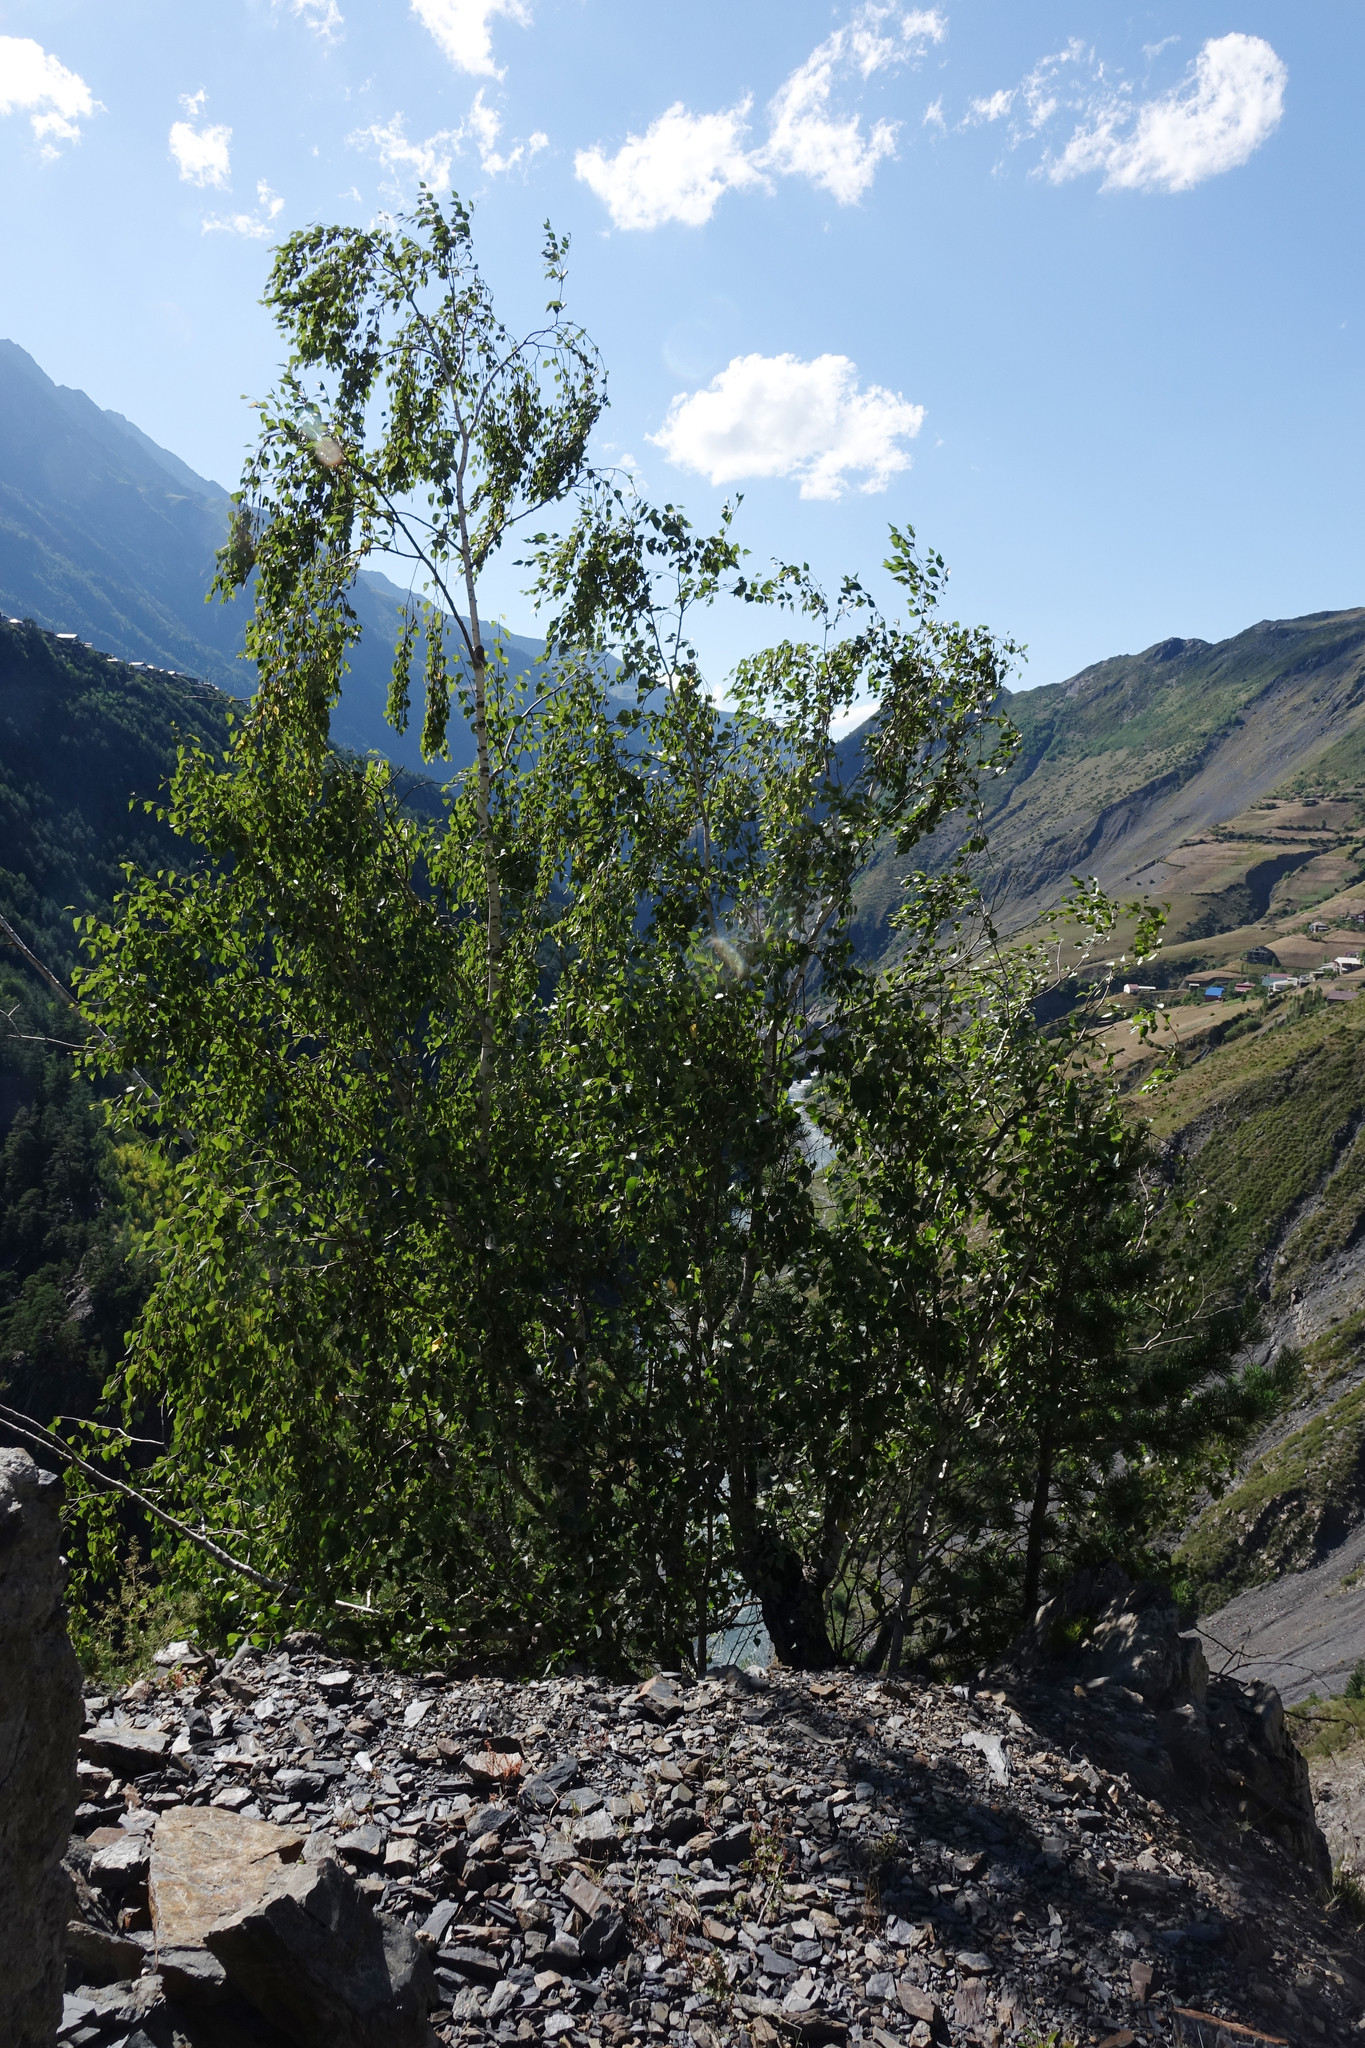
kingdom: Plantae
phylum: Tracheophyta
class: Magnoliopsida
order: Fagales
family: Betulaceae
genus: Betula
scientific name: Betula pendula
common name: Silver birch
